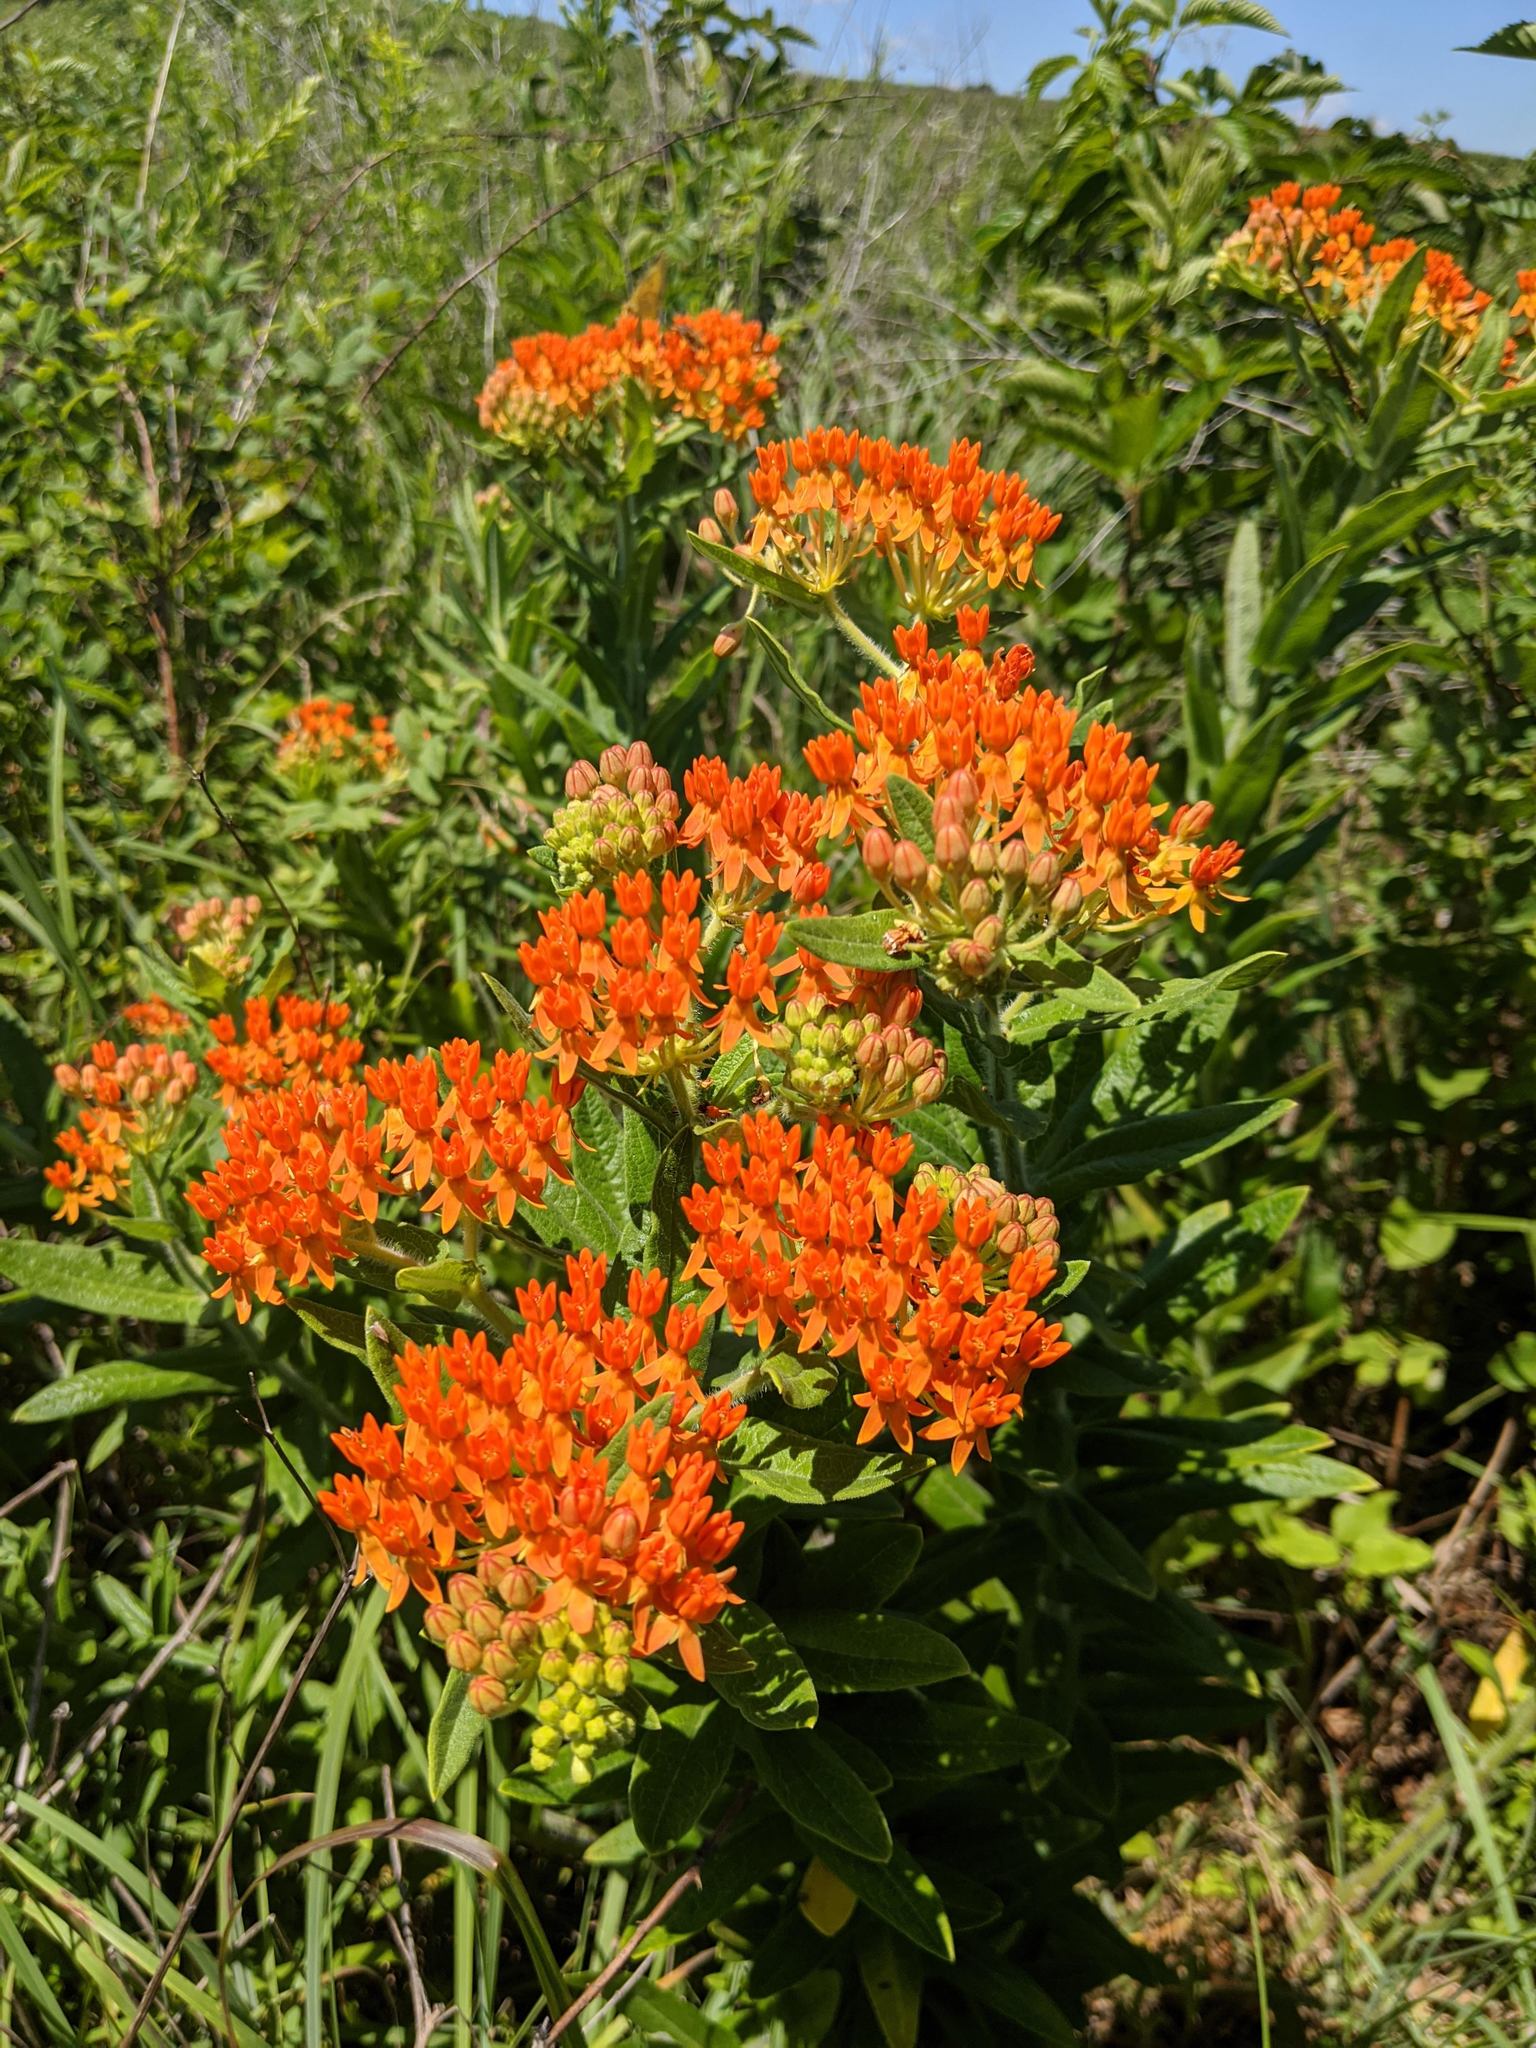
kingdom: Plantae
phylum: Tracheophyta
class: Magnoliopsida
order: Gentianales
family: Apocynaceae
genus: Asclepias
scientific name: Asclepias tuberosa
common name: Butterfly milkweed
